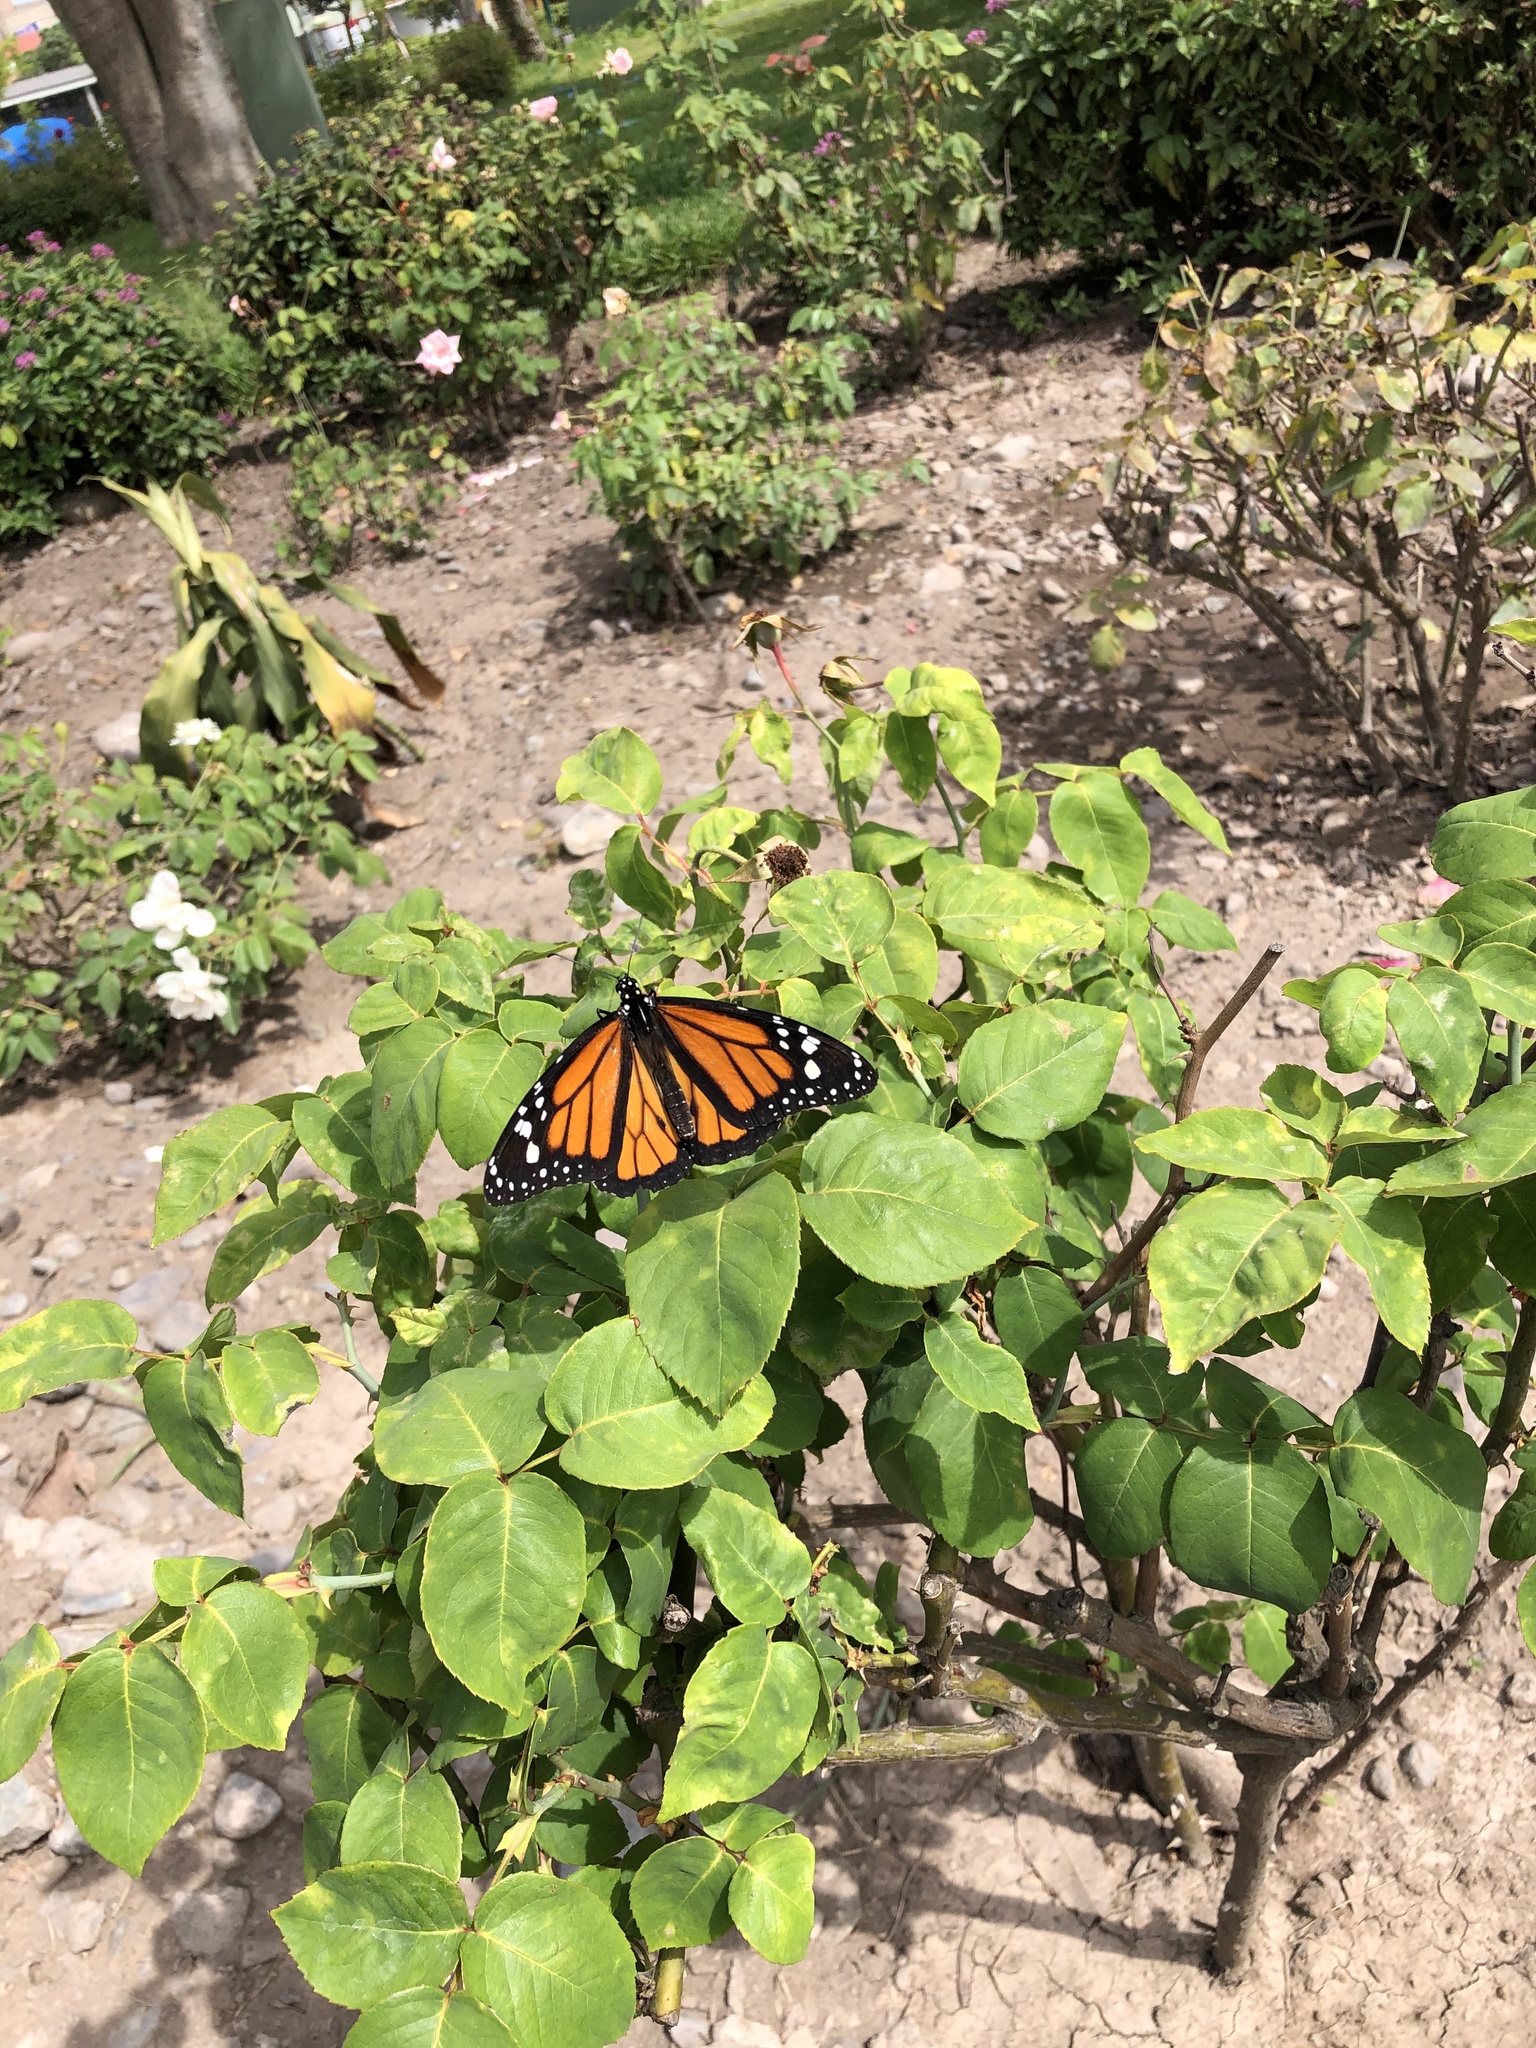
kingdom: Animalia
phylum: Arthropoda
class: Insecta
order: Lepidoptera
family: Nymphalidae
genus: Danaus
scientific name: Danaus plexippus
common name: Monarch
